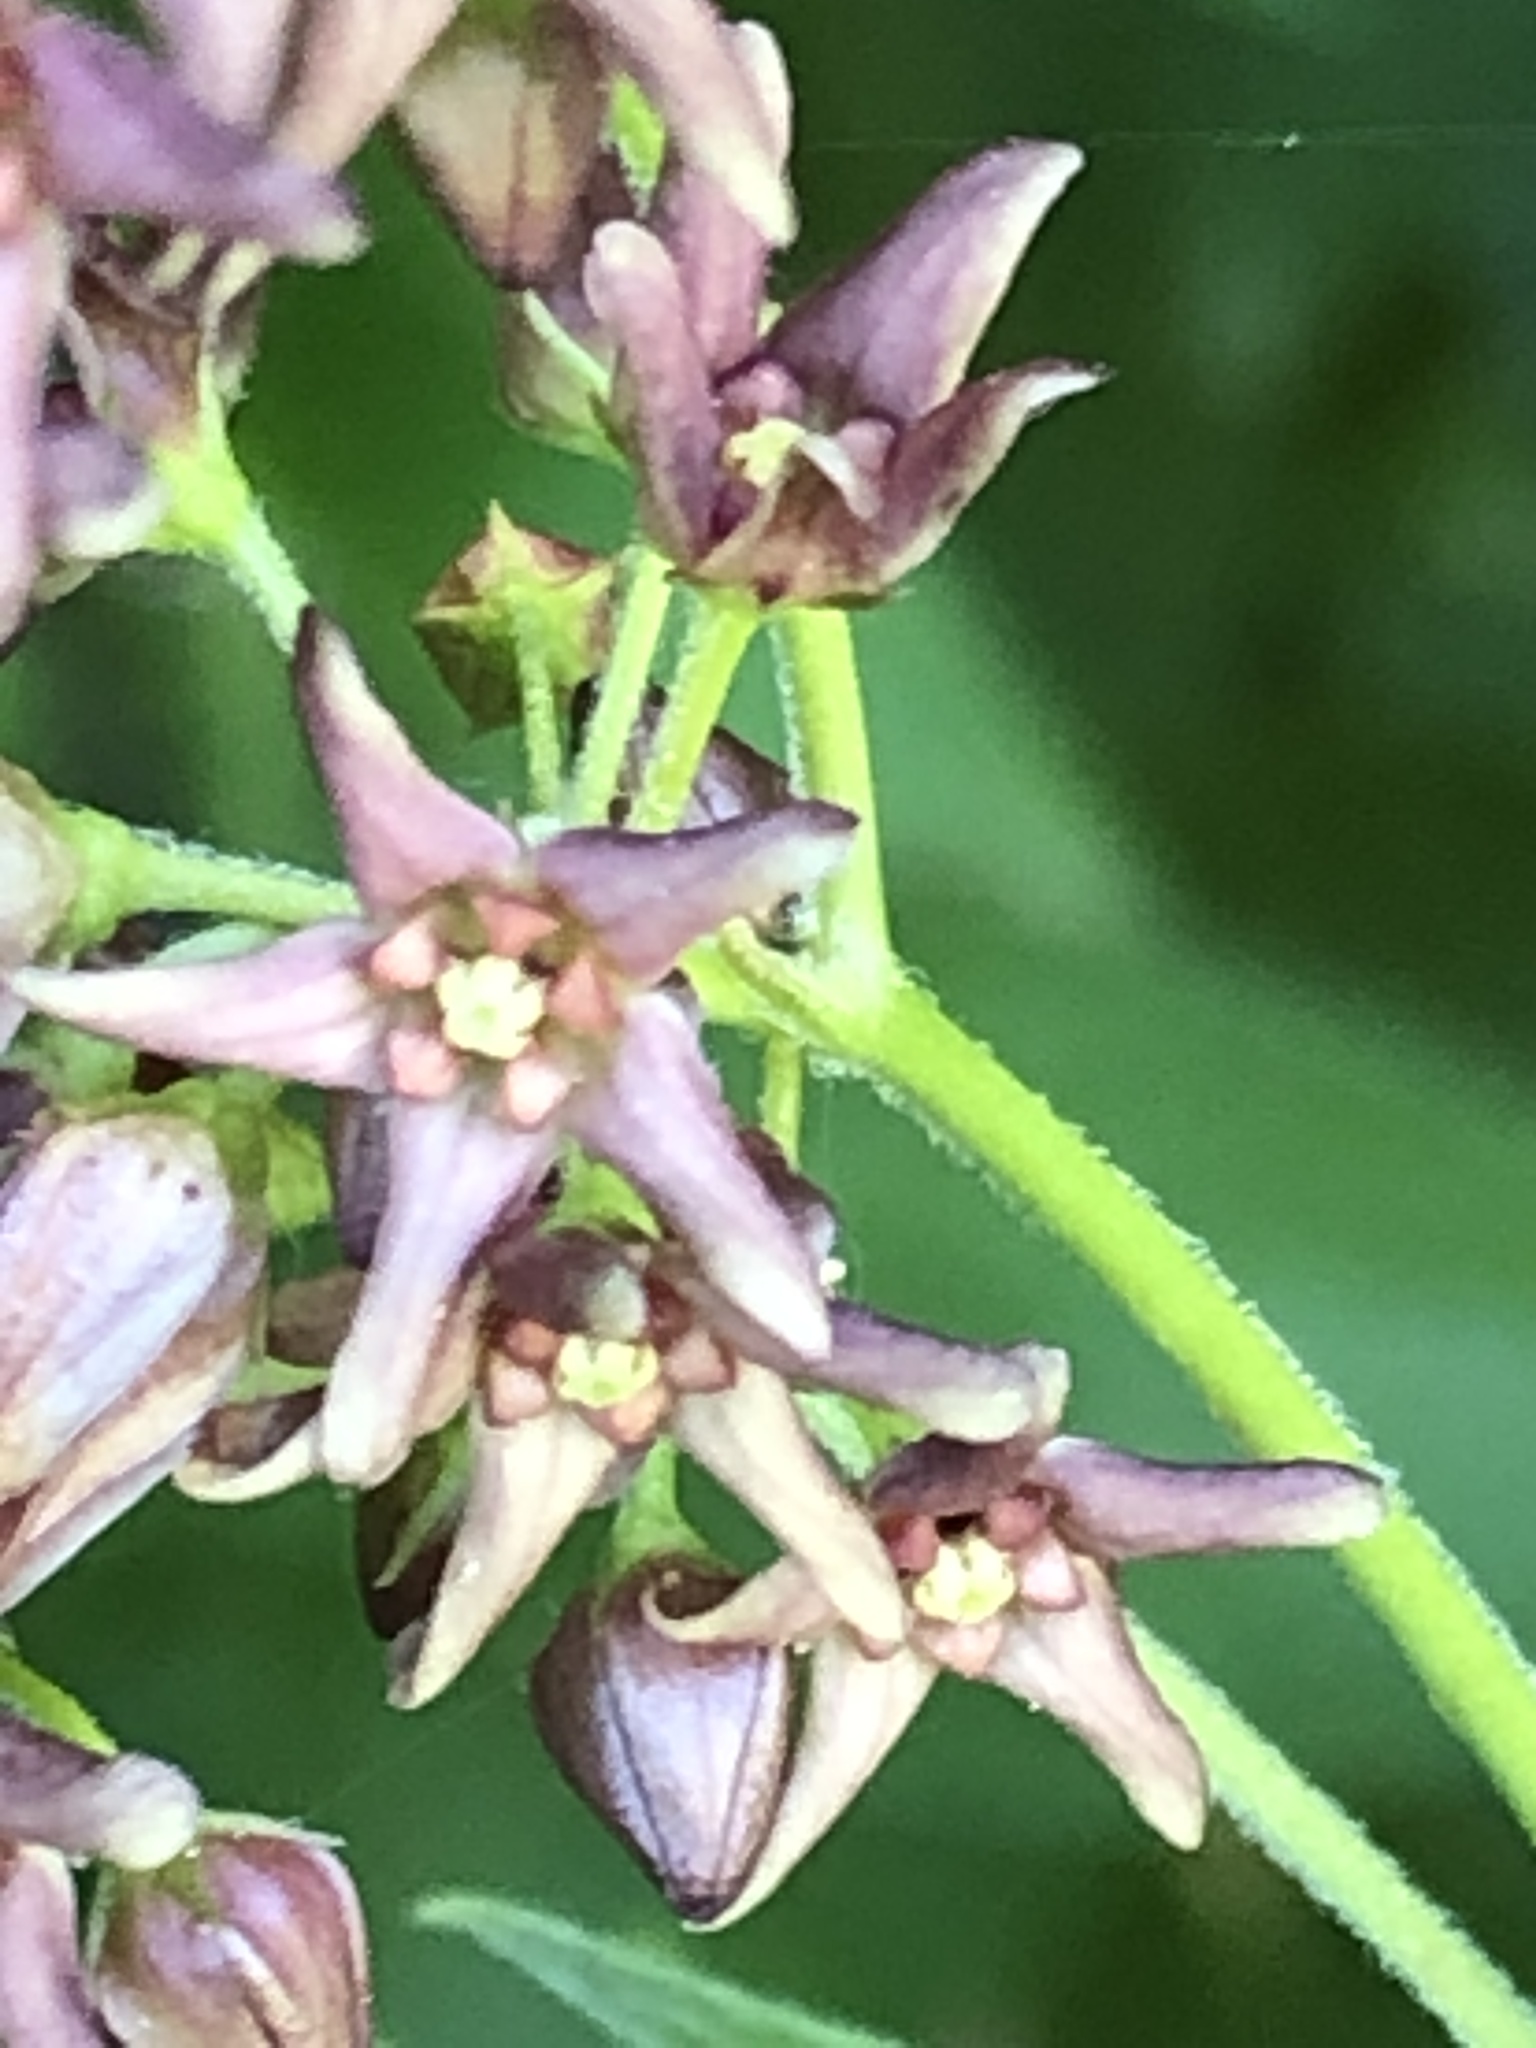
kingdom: Plantae
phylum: Tracheophyta
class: Magnoliopsida
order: Gentianales
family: Apocynaceae
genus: Vincetoxicum
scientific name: Vincetoxicum rossicum
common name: Dog-strangling vine
